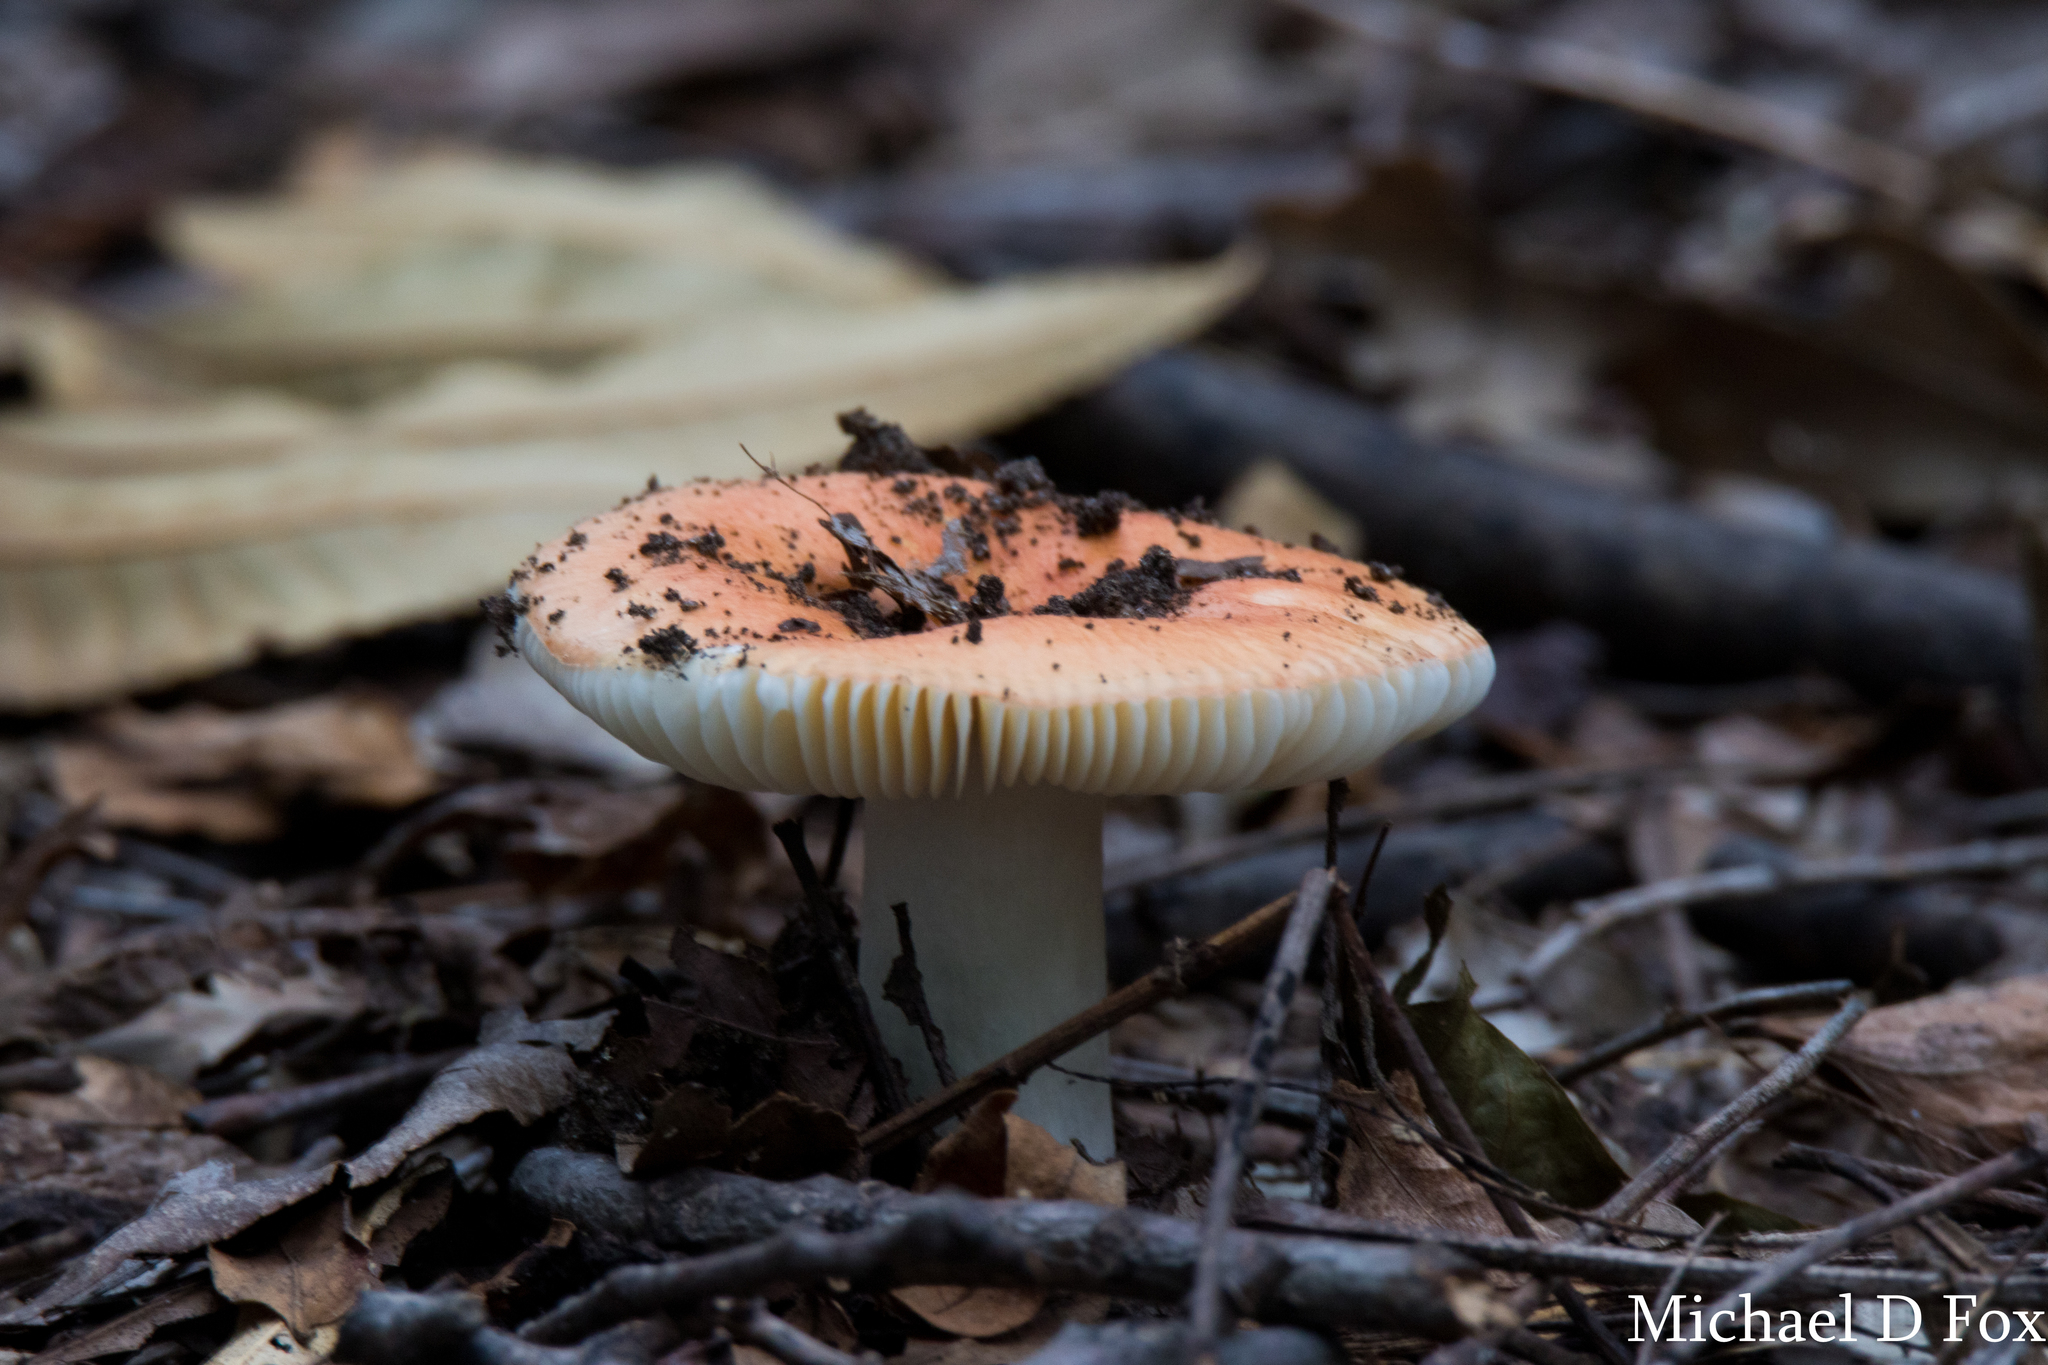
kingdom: Fungi
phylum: Basidiomycota
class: Agaricomycetes
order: Russulales
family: Russulaceae
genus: Russula
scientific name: Russula
